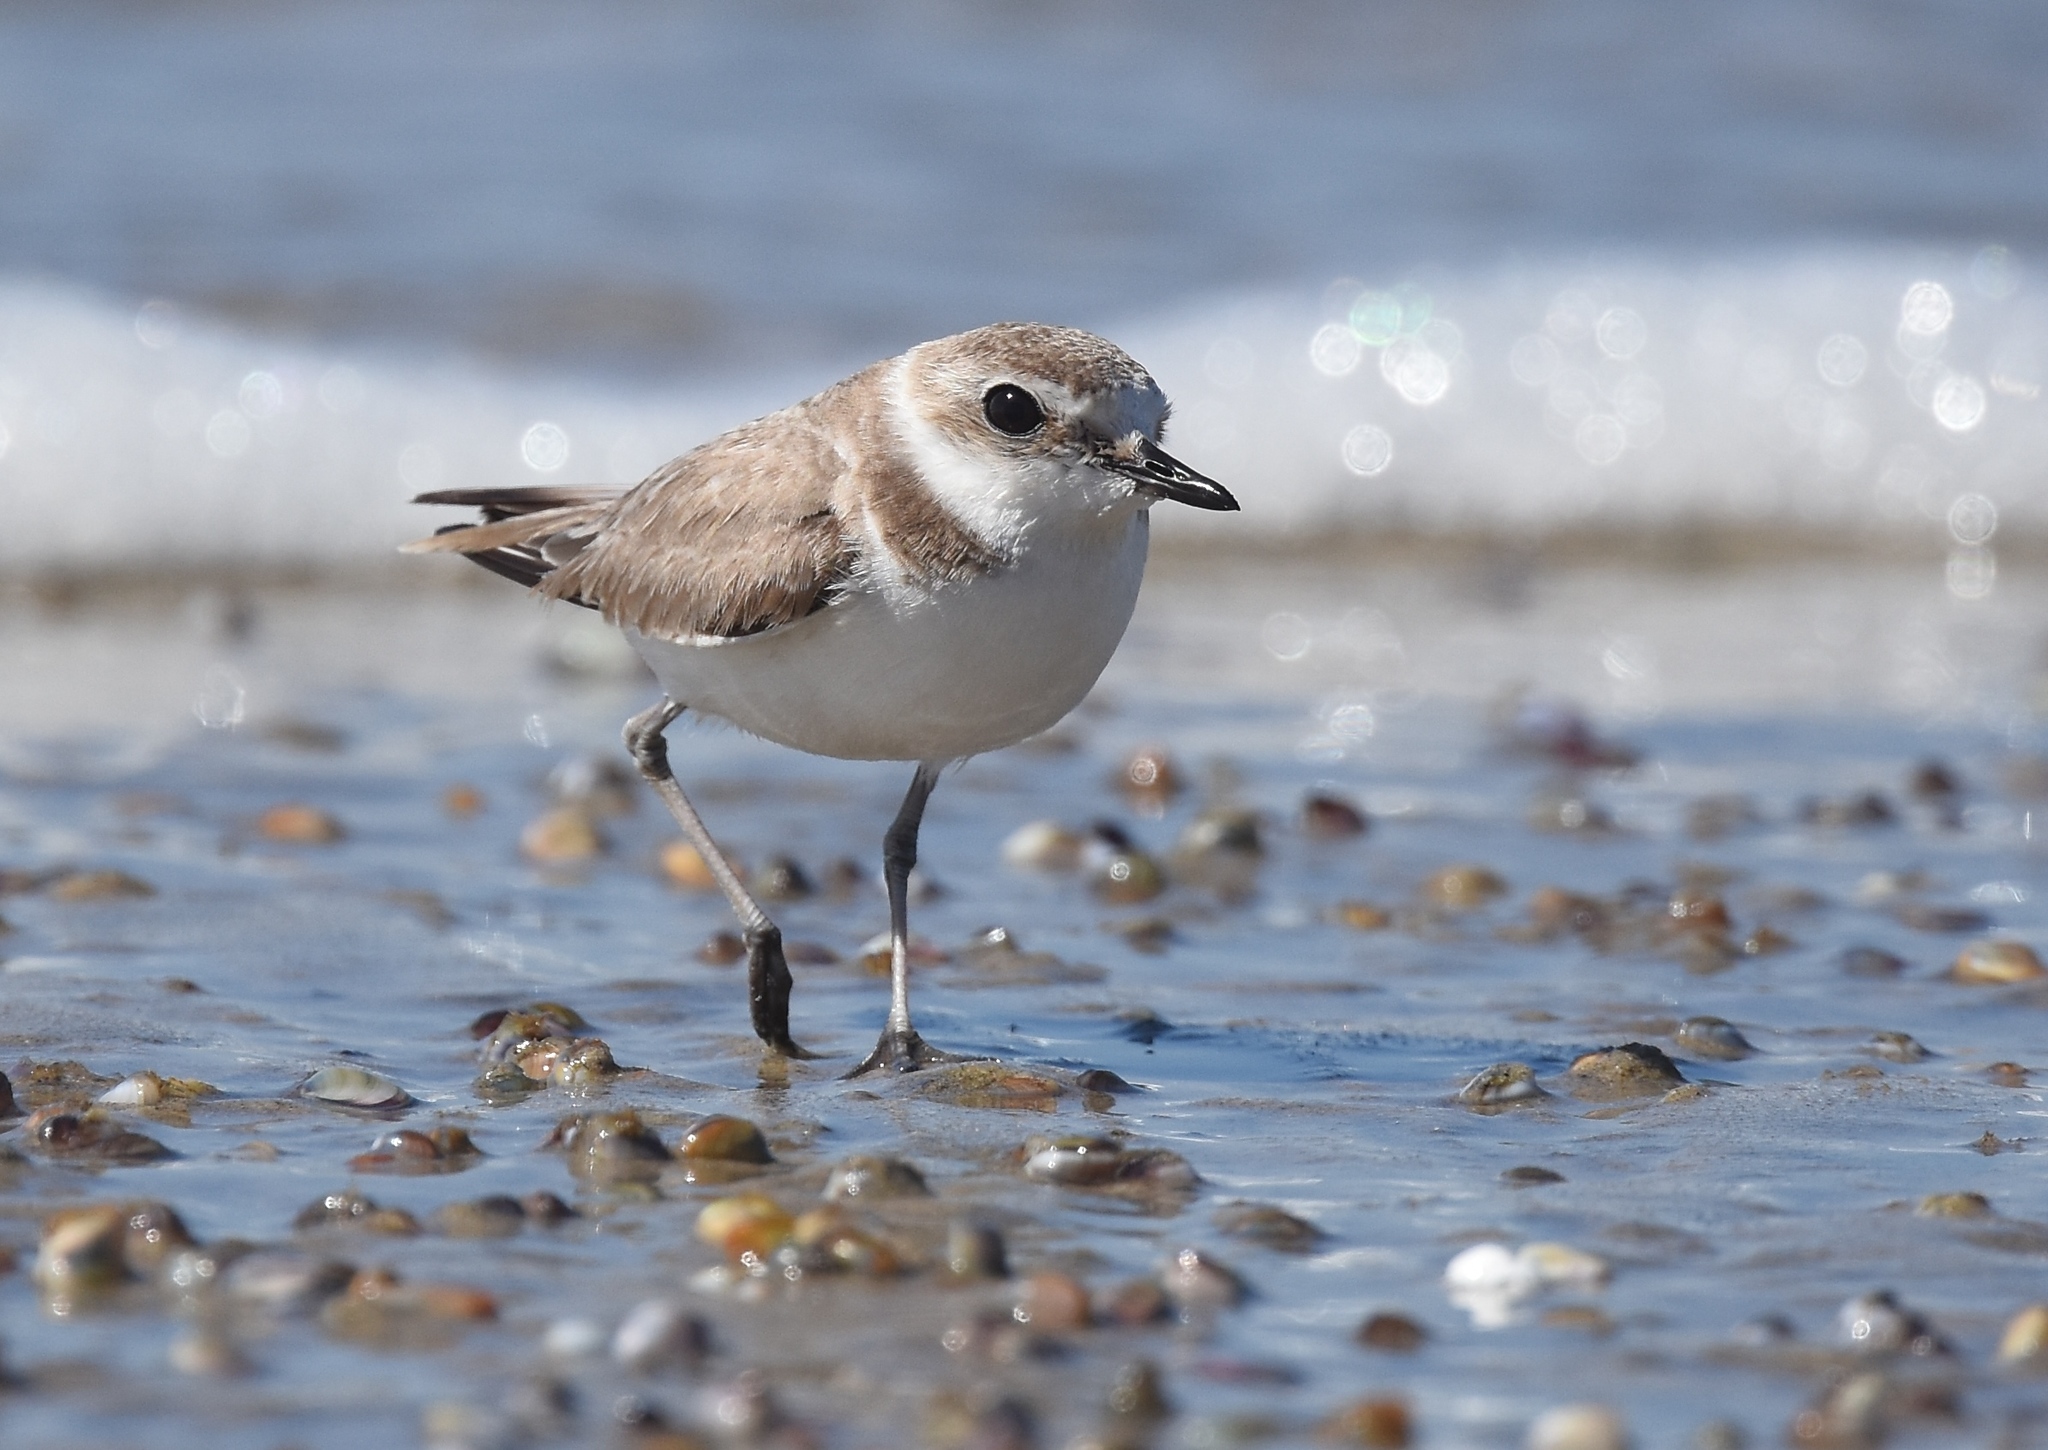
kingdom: Animalia
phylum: Chordata
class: Aves
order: Charadriiformes
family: Charadriidae
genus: Anarhynchus
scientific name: Anarhynchus
